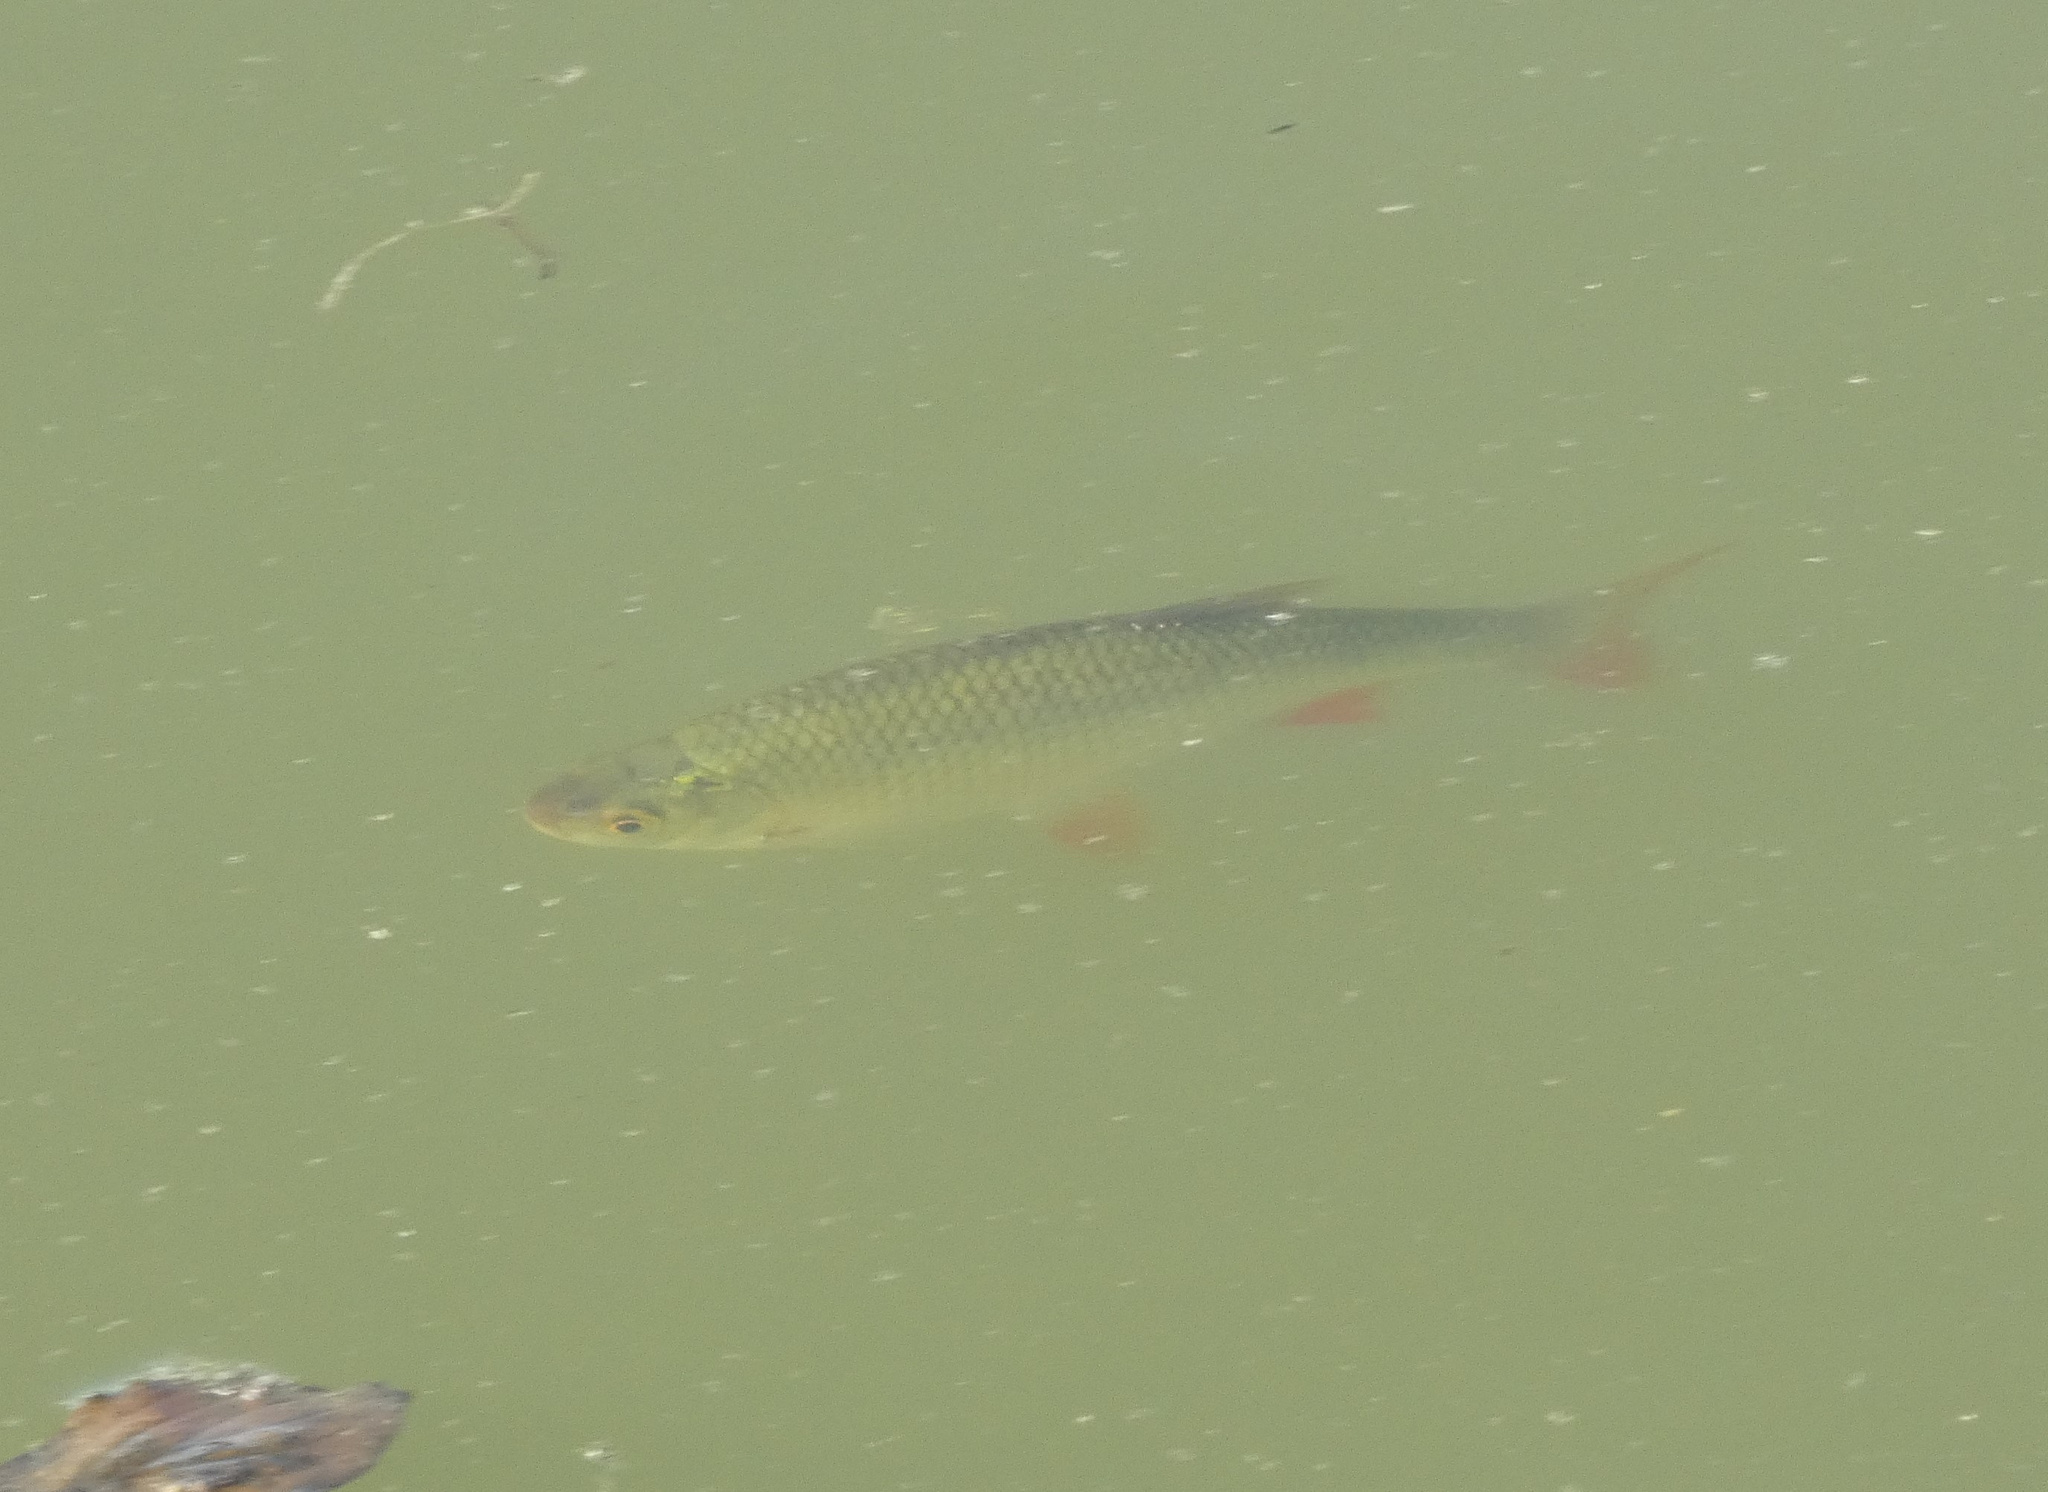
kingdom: Animalia
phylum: Chordata
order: Cypriniformes
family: Cyprinidae
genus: Scardinius
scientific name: Scardinius erythrophthalmus
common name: Rudd
